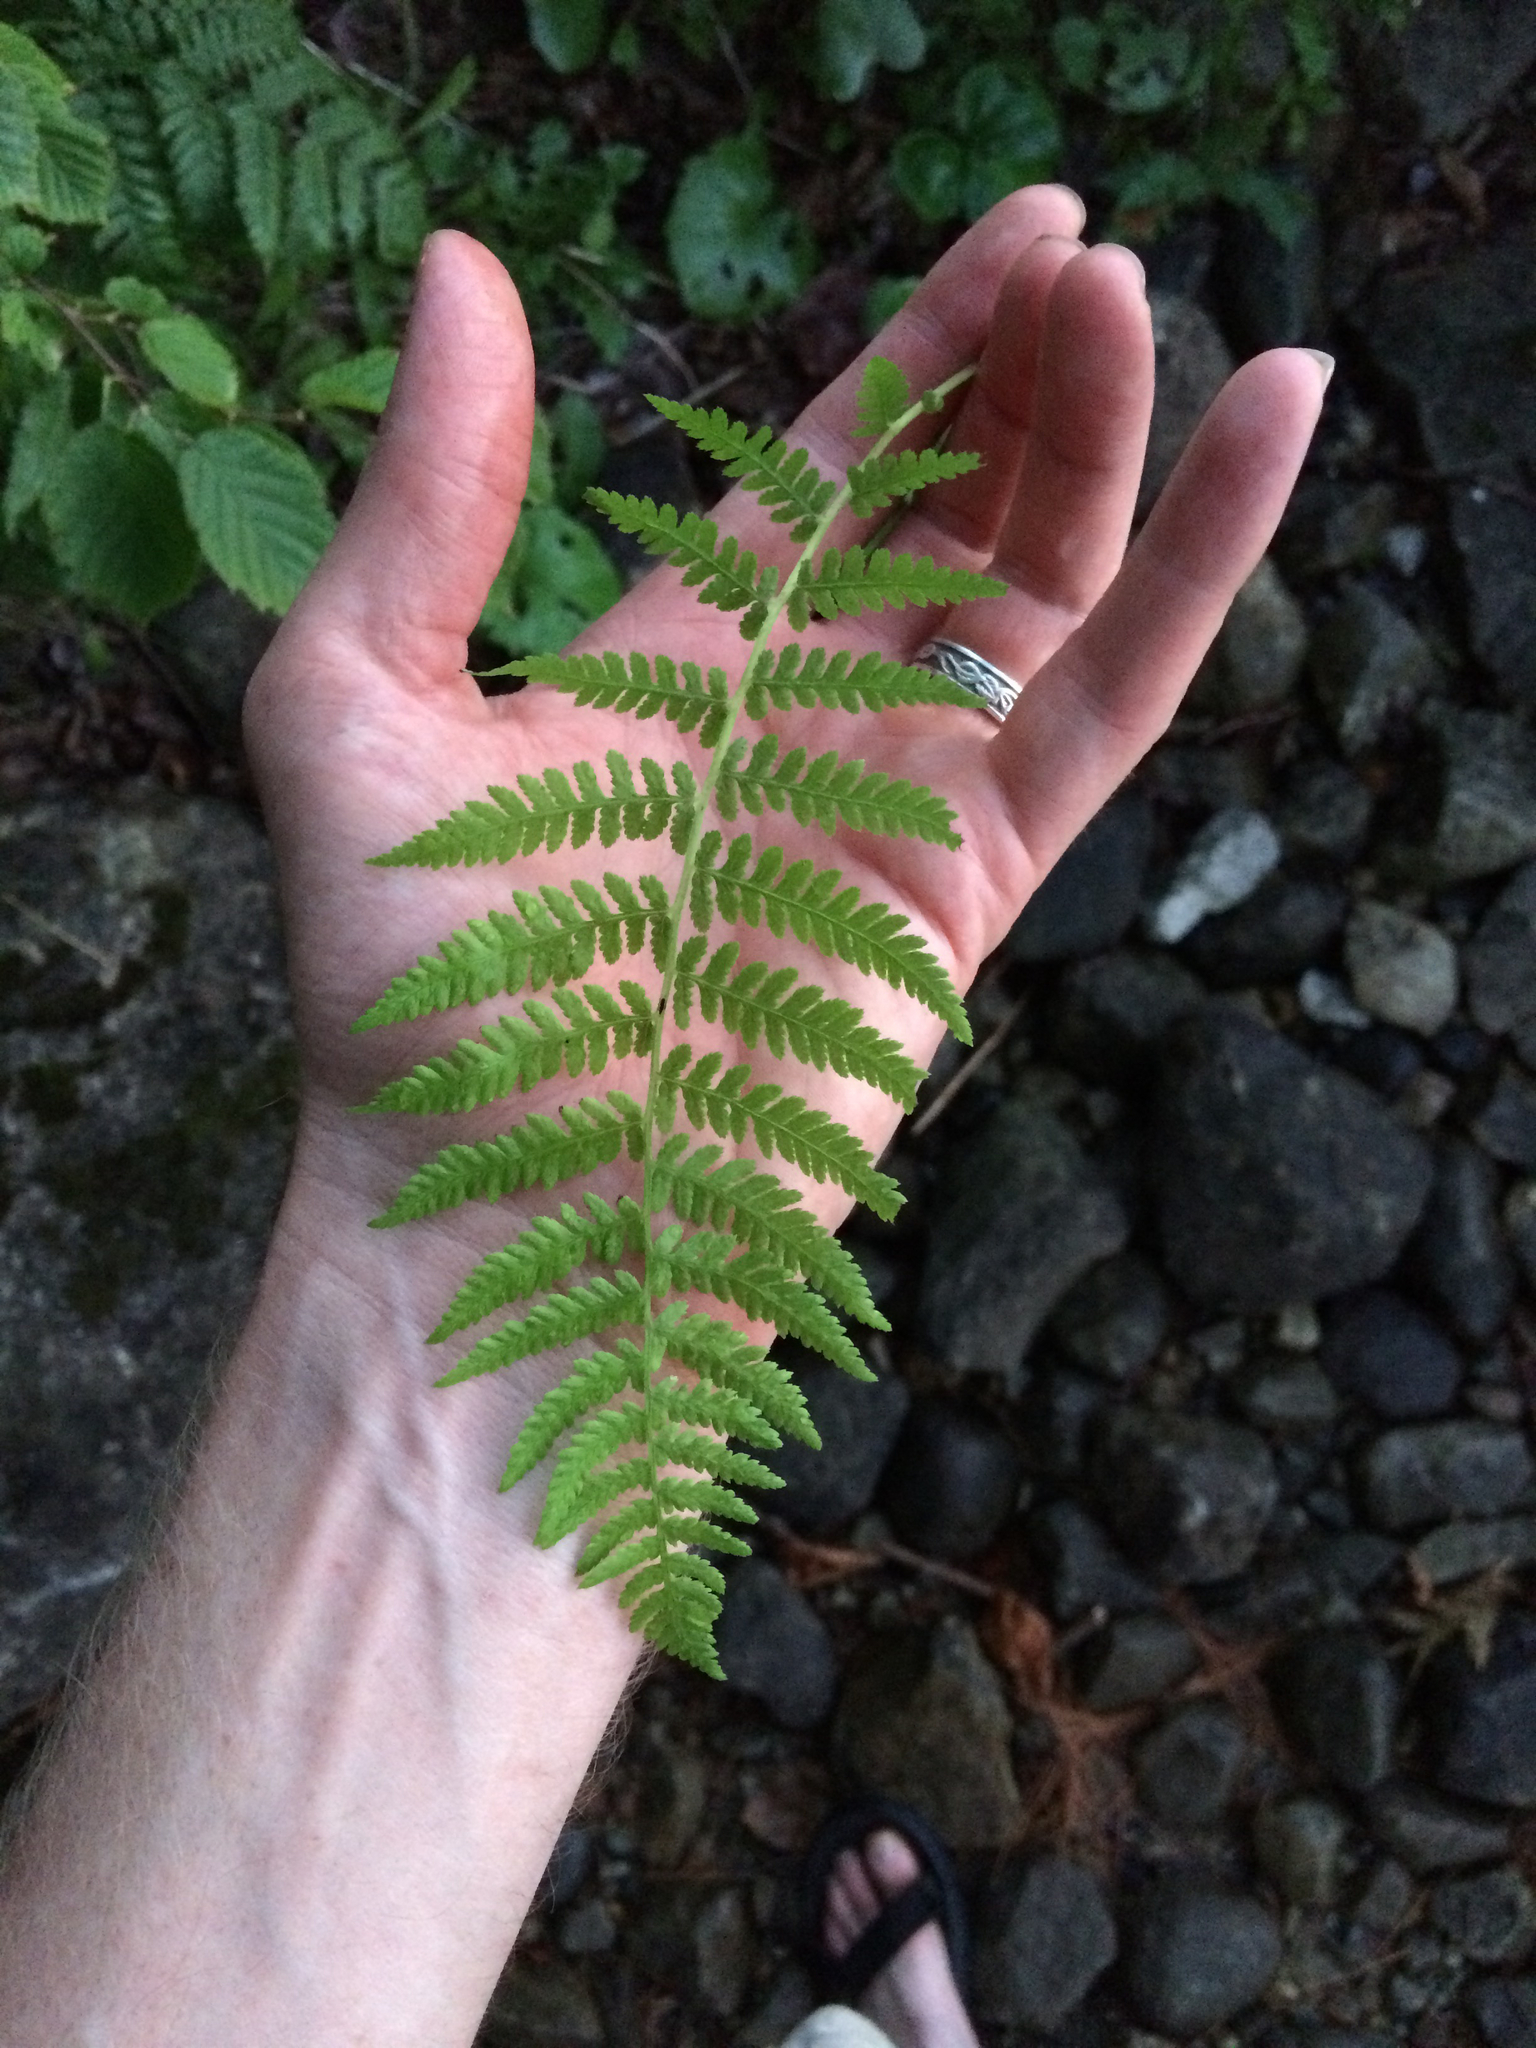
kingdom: Plantae
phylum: Tracheophyta
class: Polypodiopsida
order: Polypodiales
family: Thelypteridaceae
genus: Amauropelta
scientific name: Amauropelta noveboracensis
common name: New york fern
